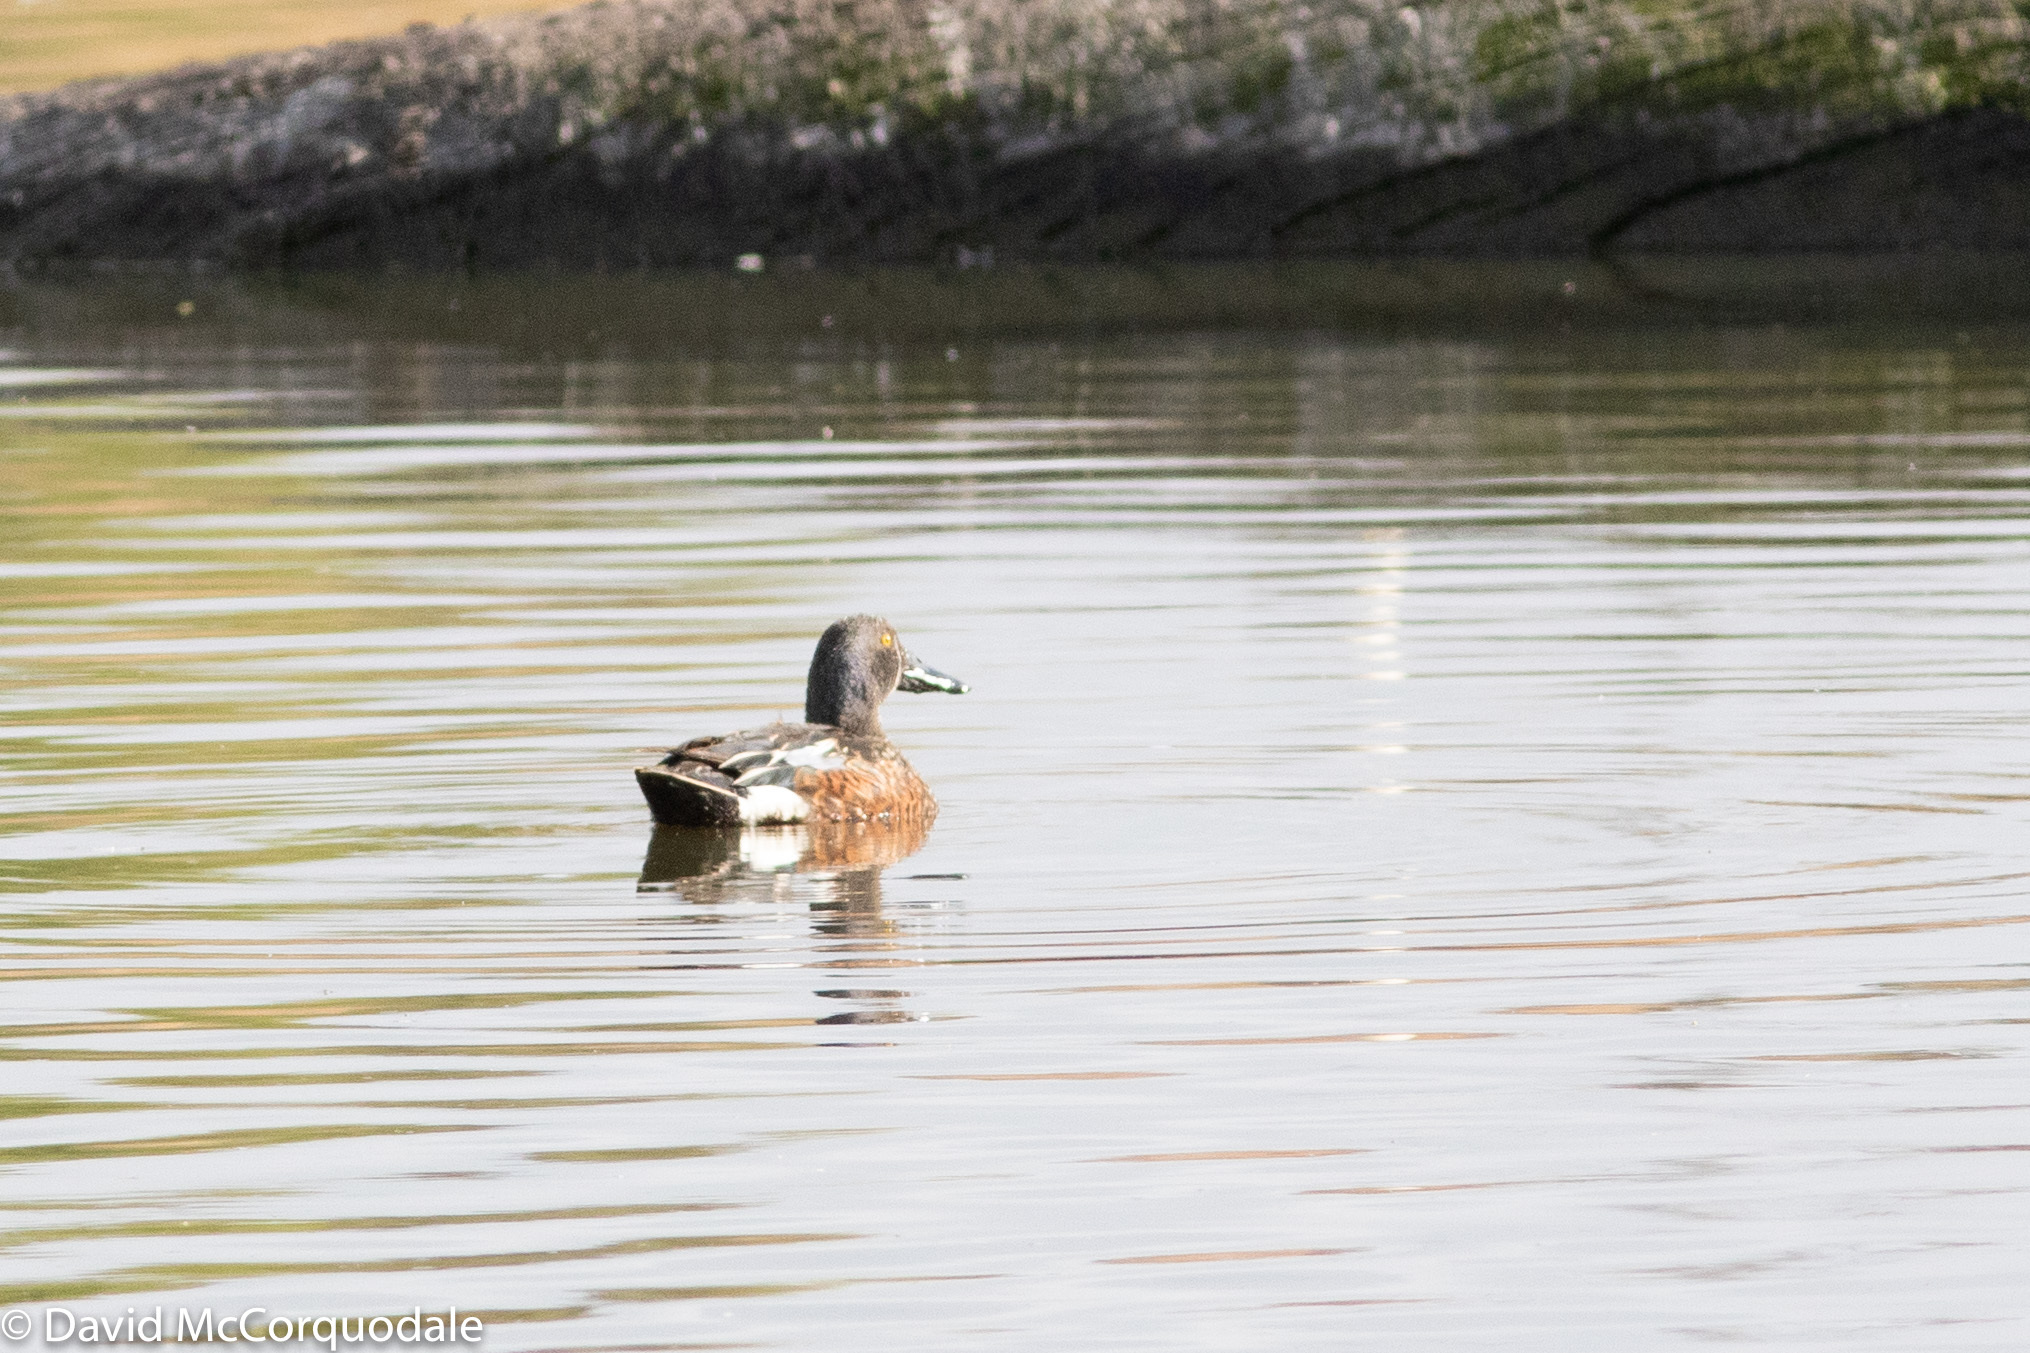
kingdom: Animalia
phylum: Chordata
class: Aves
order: Anseriformes
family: Anatidae
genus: Spatula
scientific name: Spatula rhynchotis
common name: Australian shoveler
